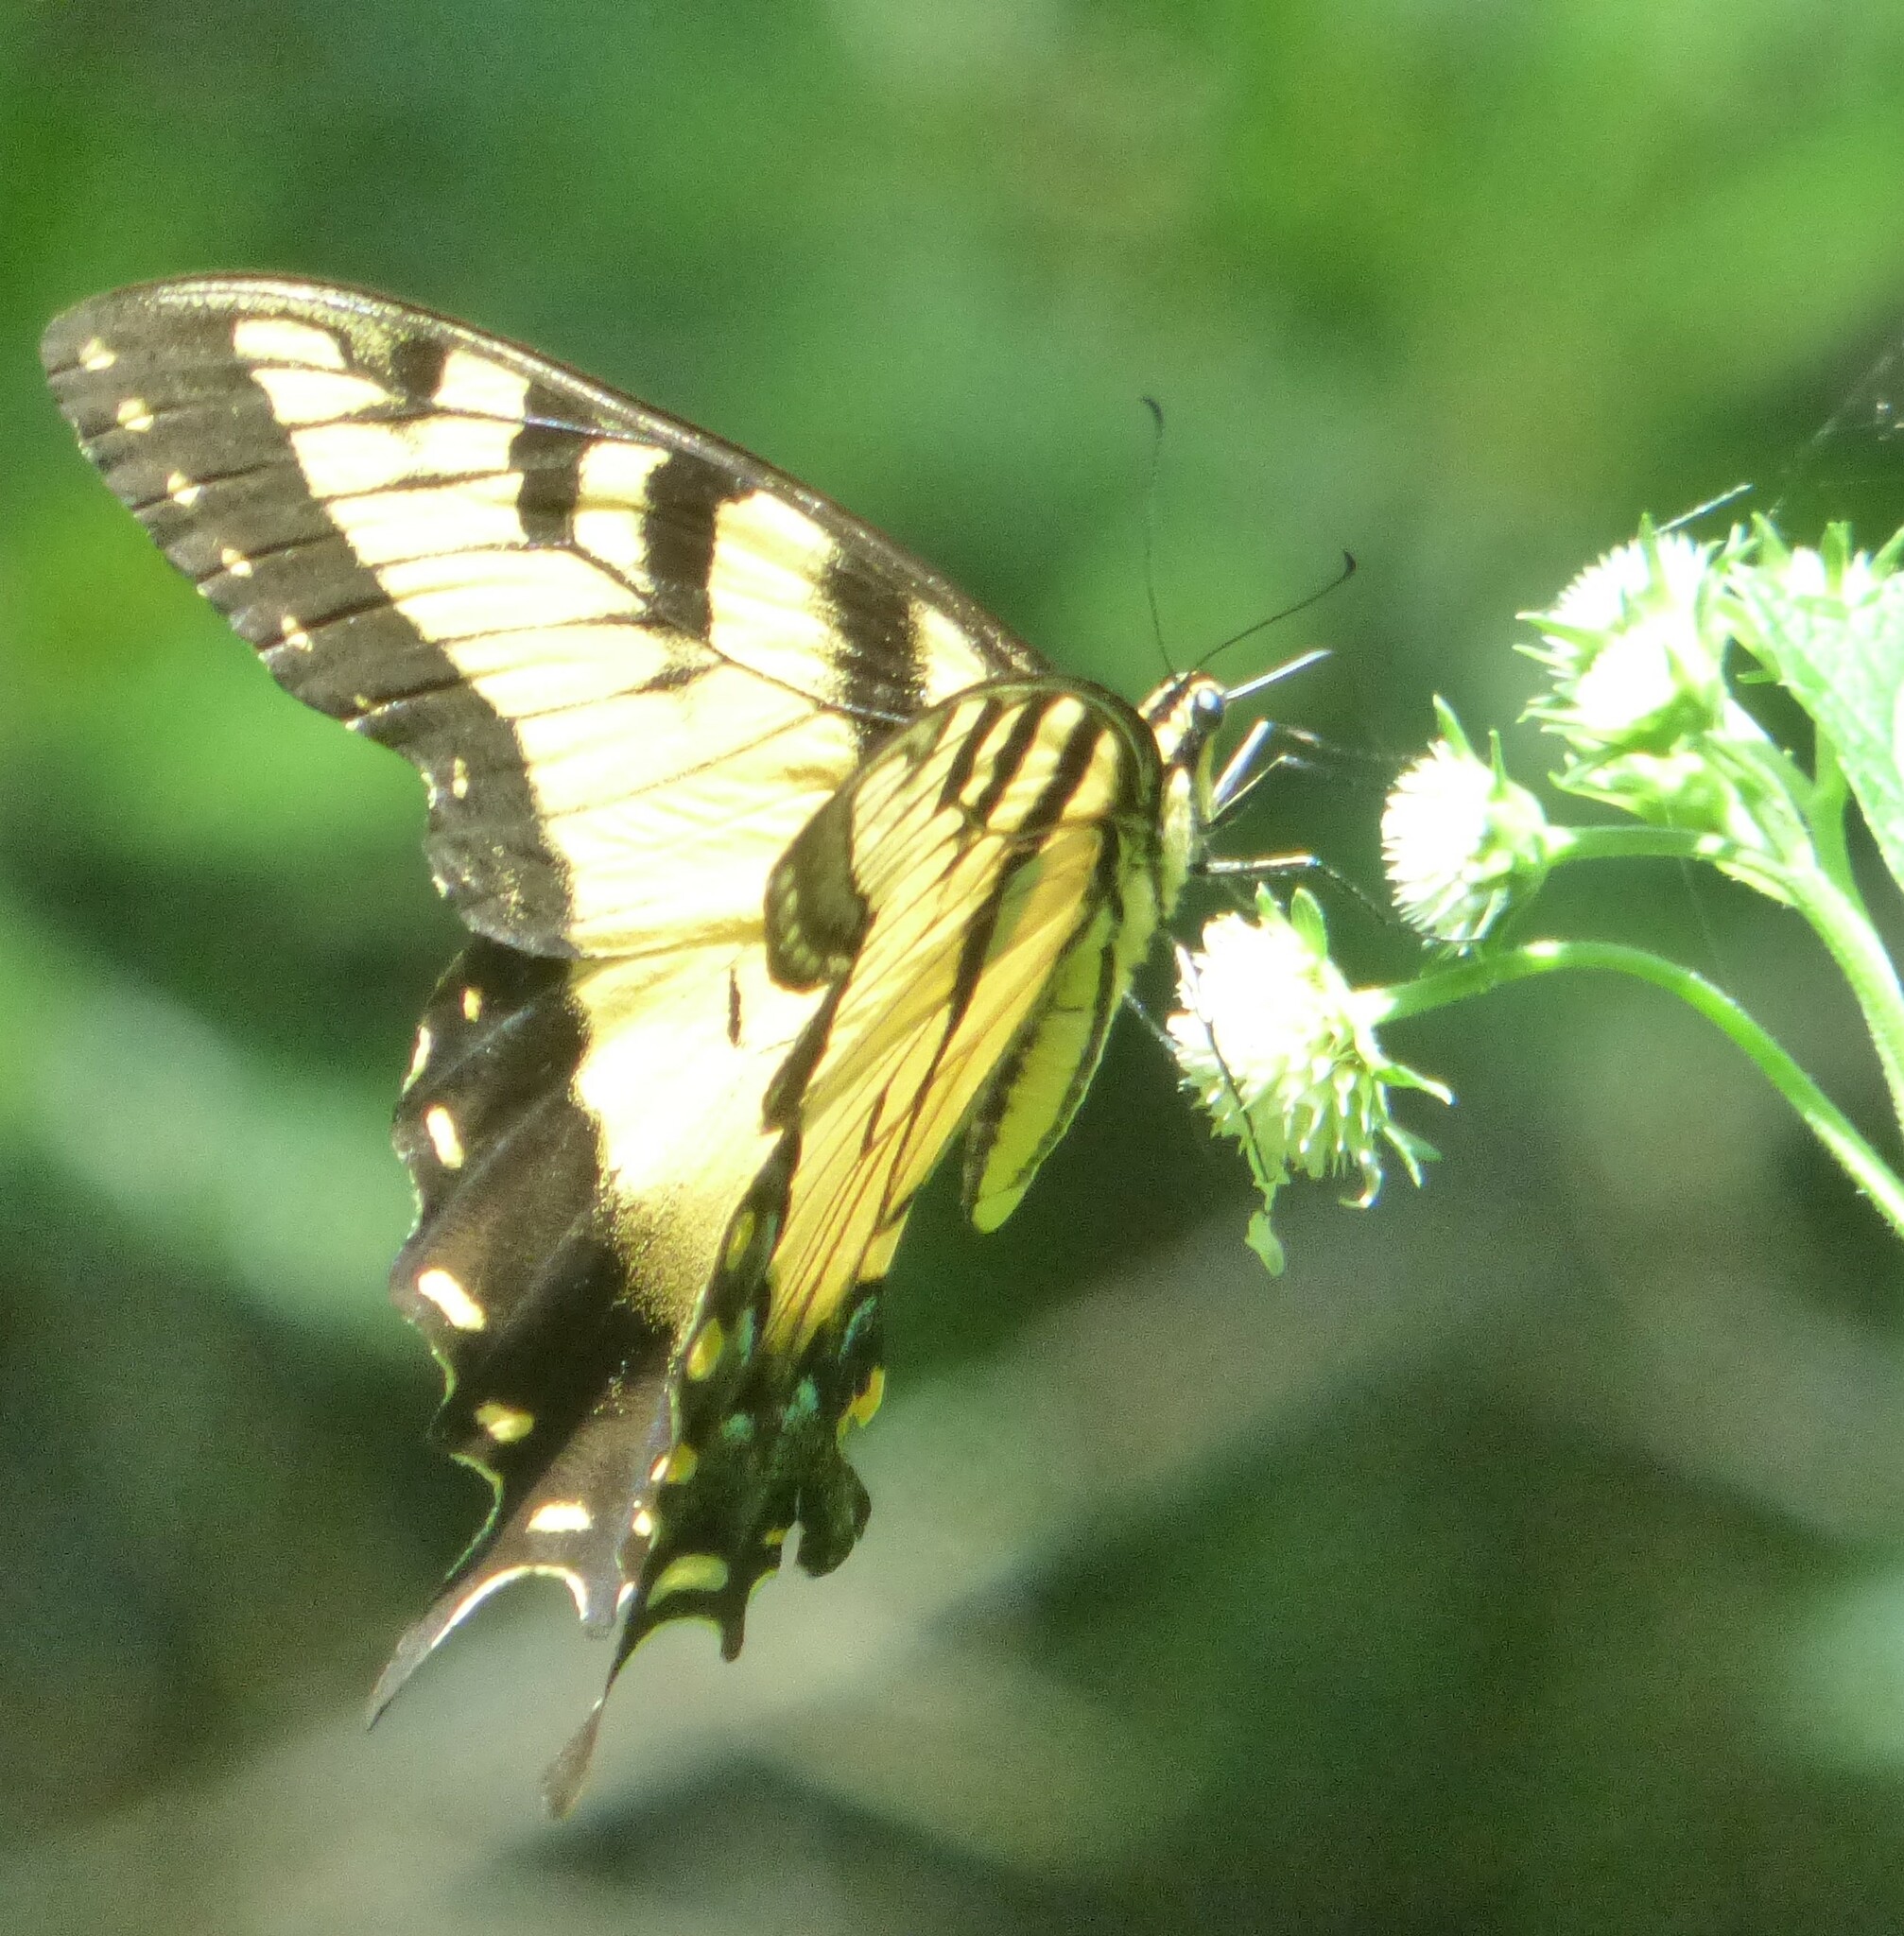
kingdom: Animalia
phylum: Arthropoda
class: Insecta
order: Lepidoptera
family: Papilionidae
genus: Papilio
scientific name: Papilio glaucus
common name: Tiger swallowtail
